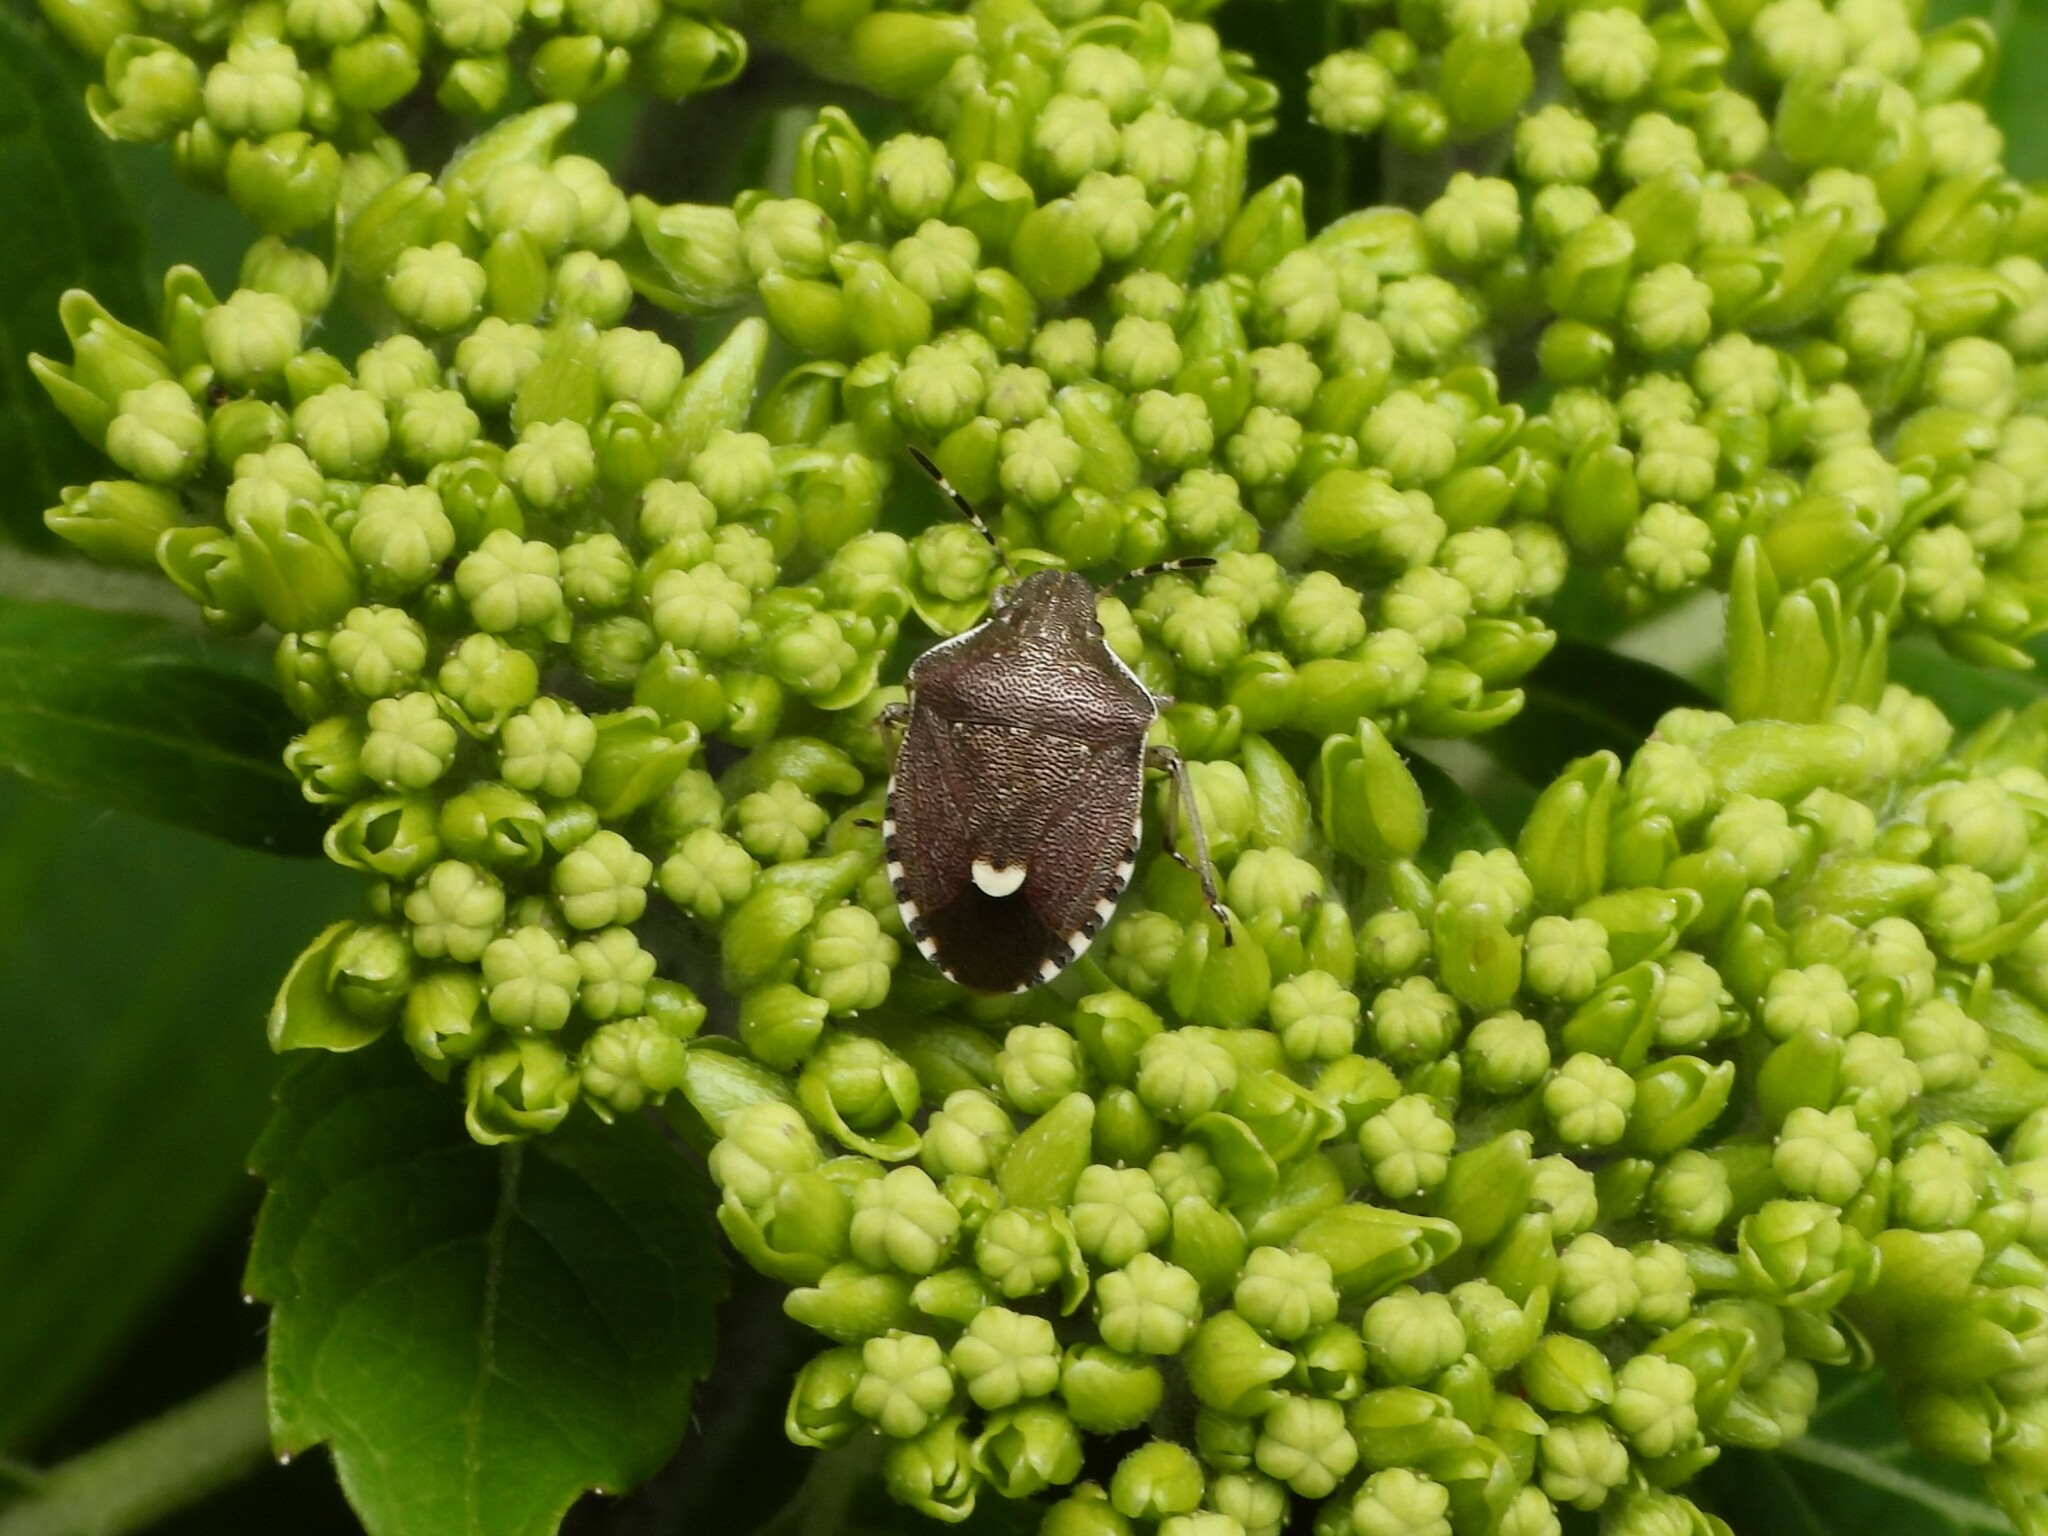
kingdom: Animalia
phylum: Arthropoda
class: Insecta
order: Hemiptera
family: Pentatomidae
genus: Holcostethus
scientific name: Holcostethus sphacelatus
